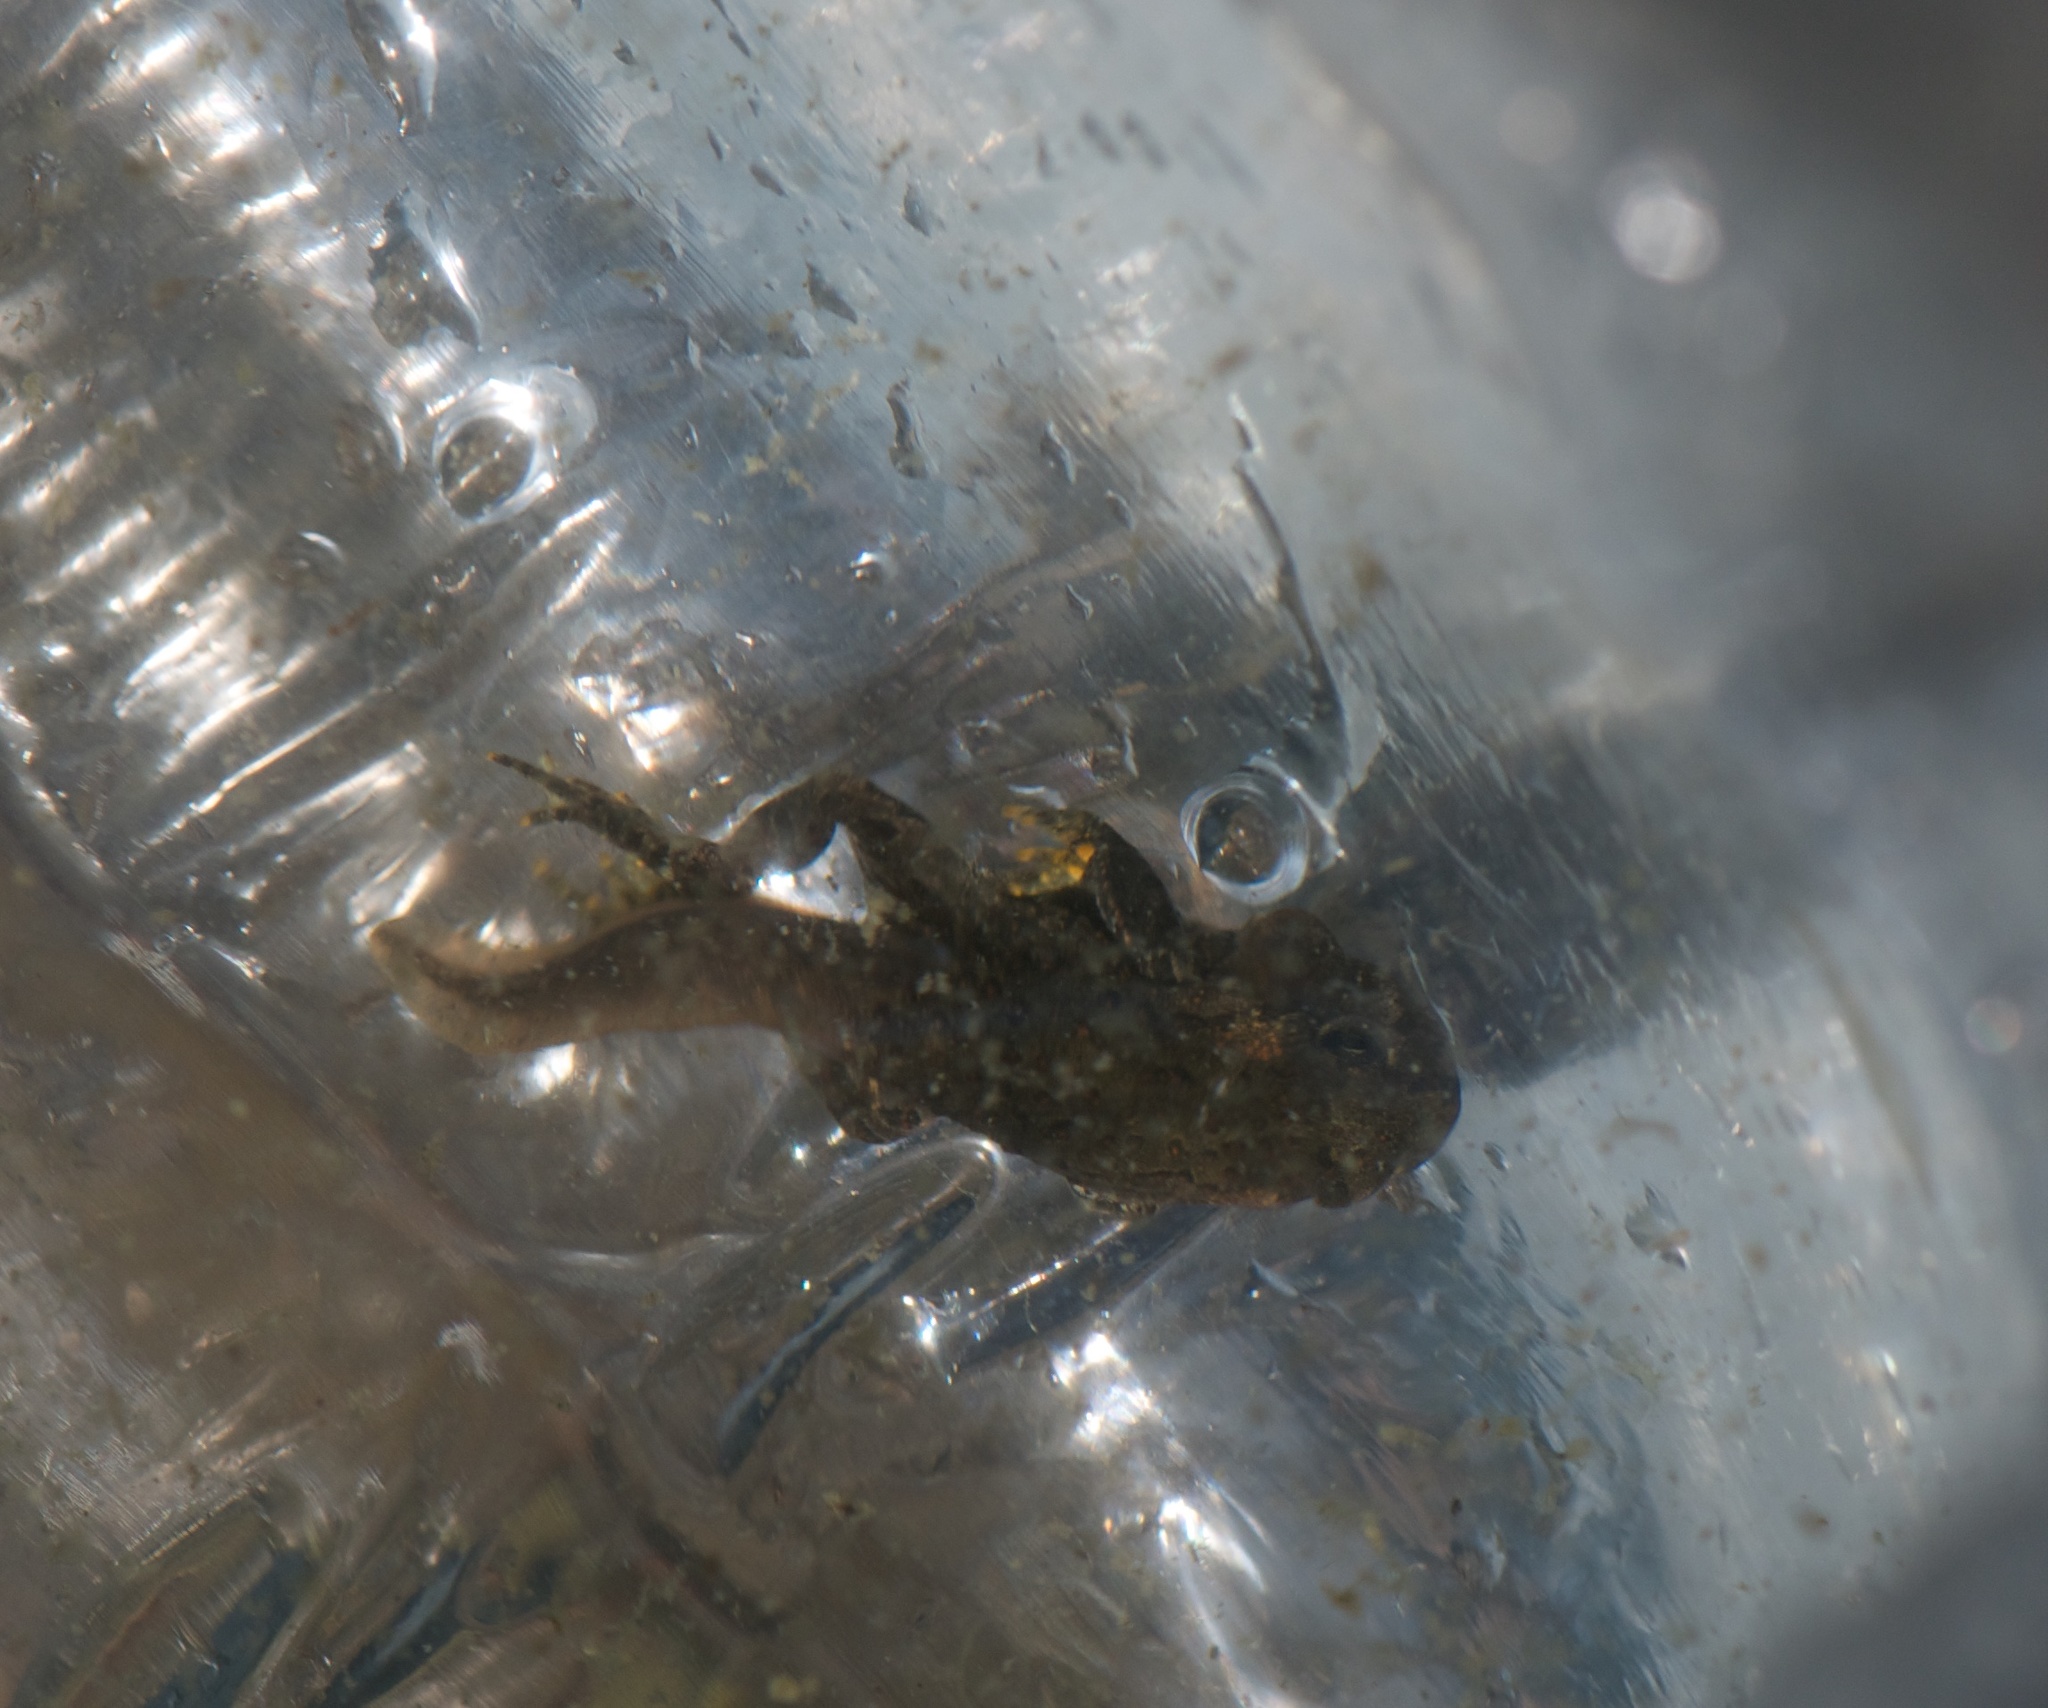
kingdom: Animalia
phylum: Chordata
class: Amphibia
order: Anura
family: Bufonidae
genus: Anaxyrus
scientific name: Anaxyrus boreas
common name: Western toad
